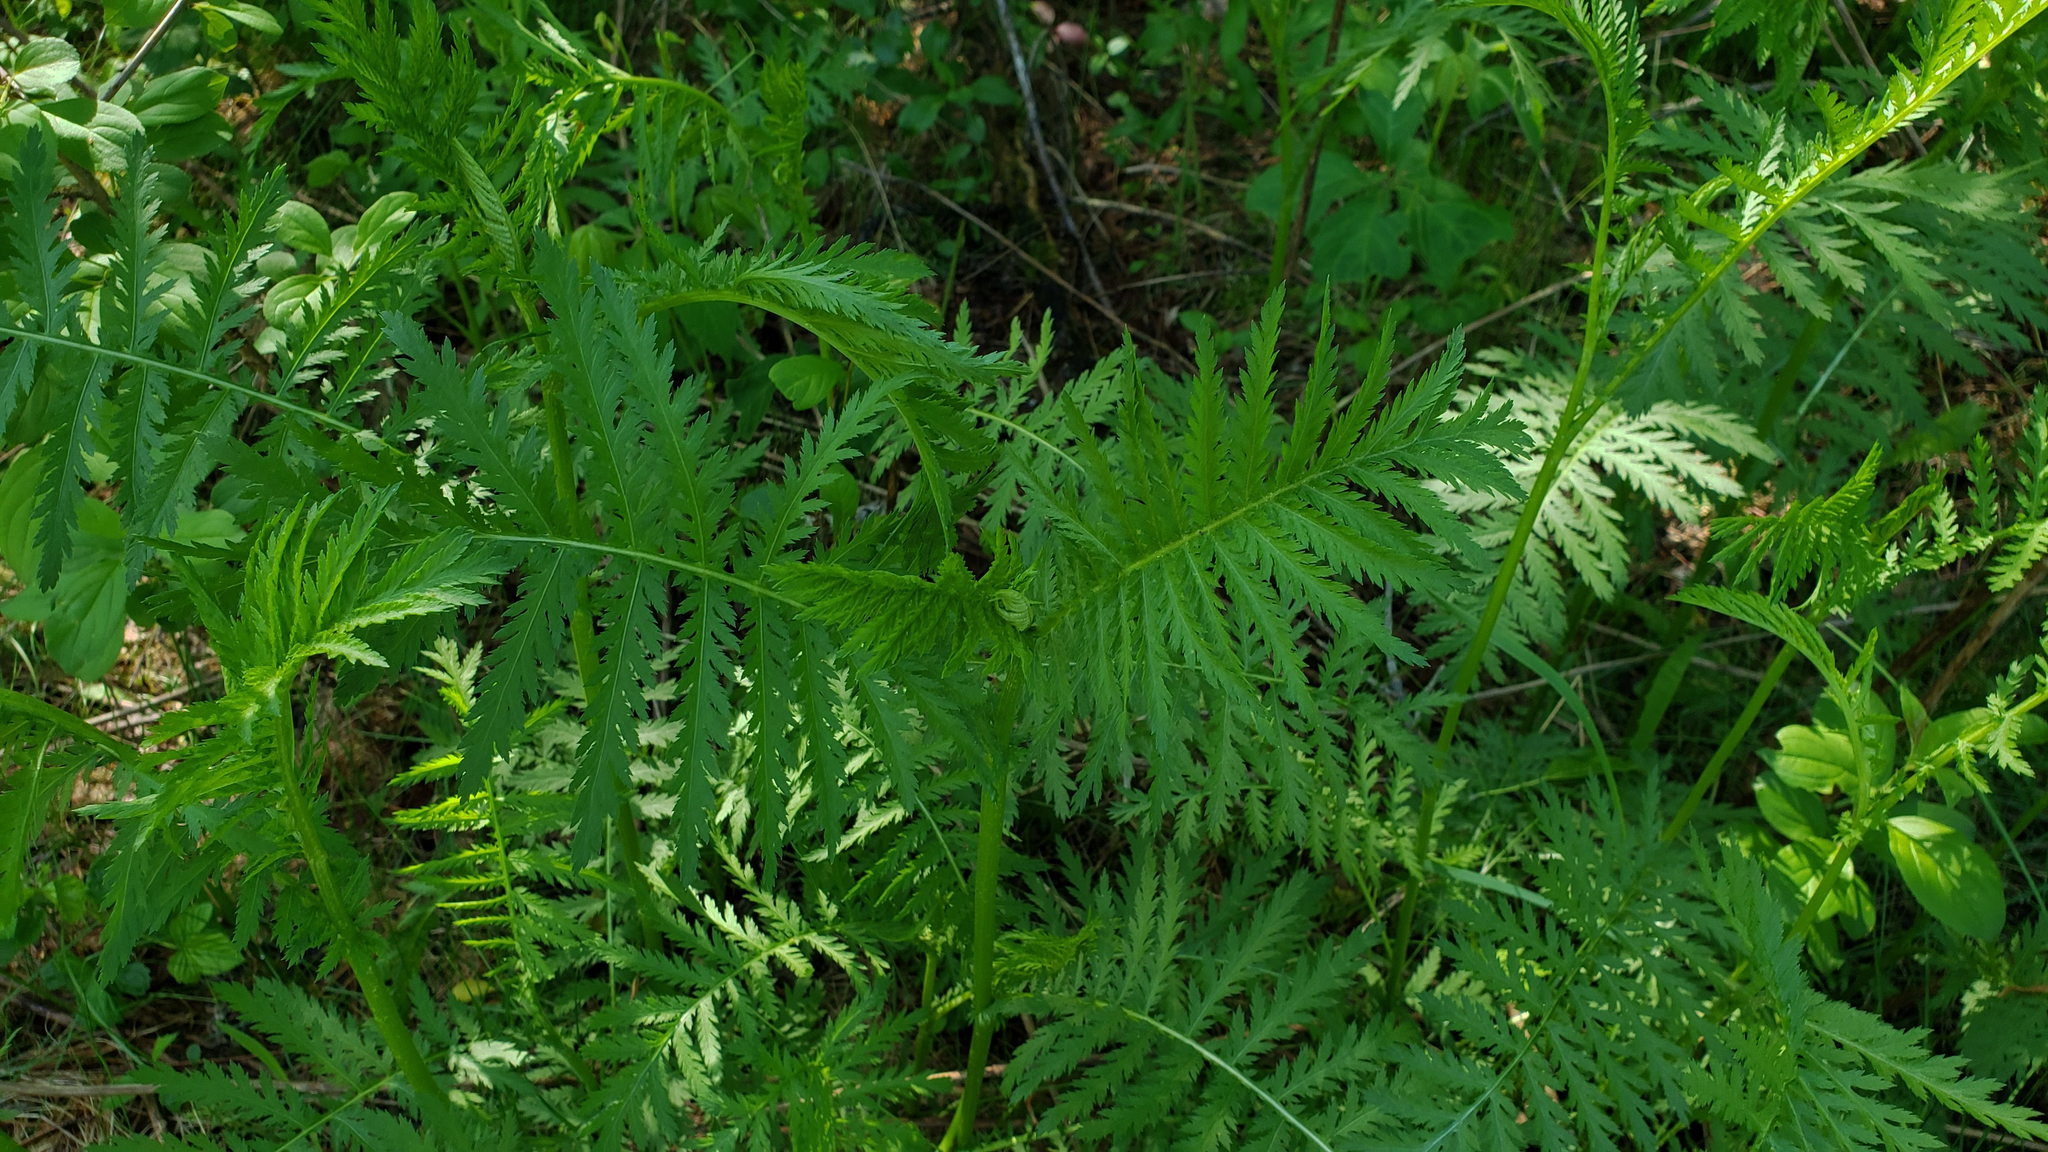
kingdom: Plantae
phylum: Tracheophyta
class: Magnoliopsida
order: Asterales
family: Asteraceae
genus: Tanacetum
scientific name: Tanacetum vulgare
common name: Common tansy
